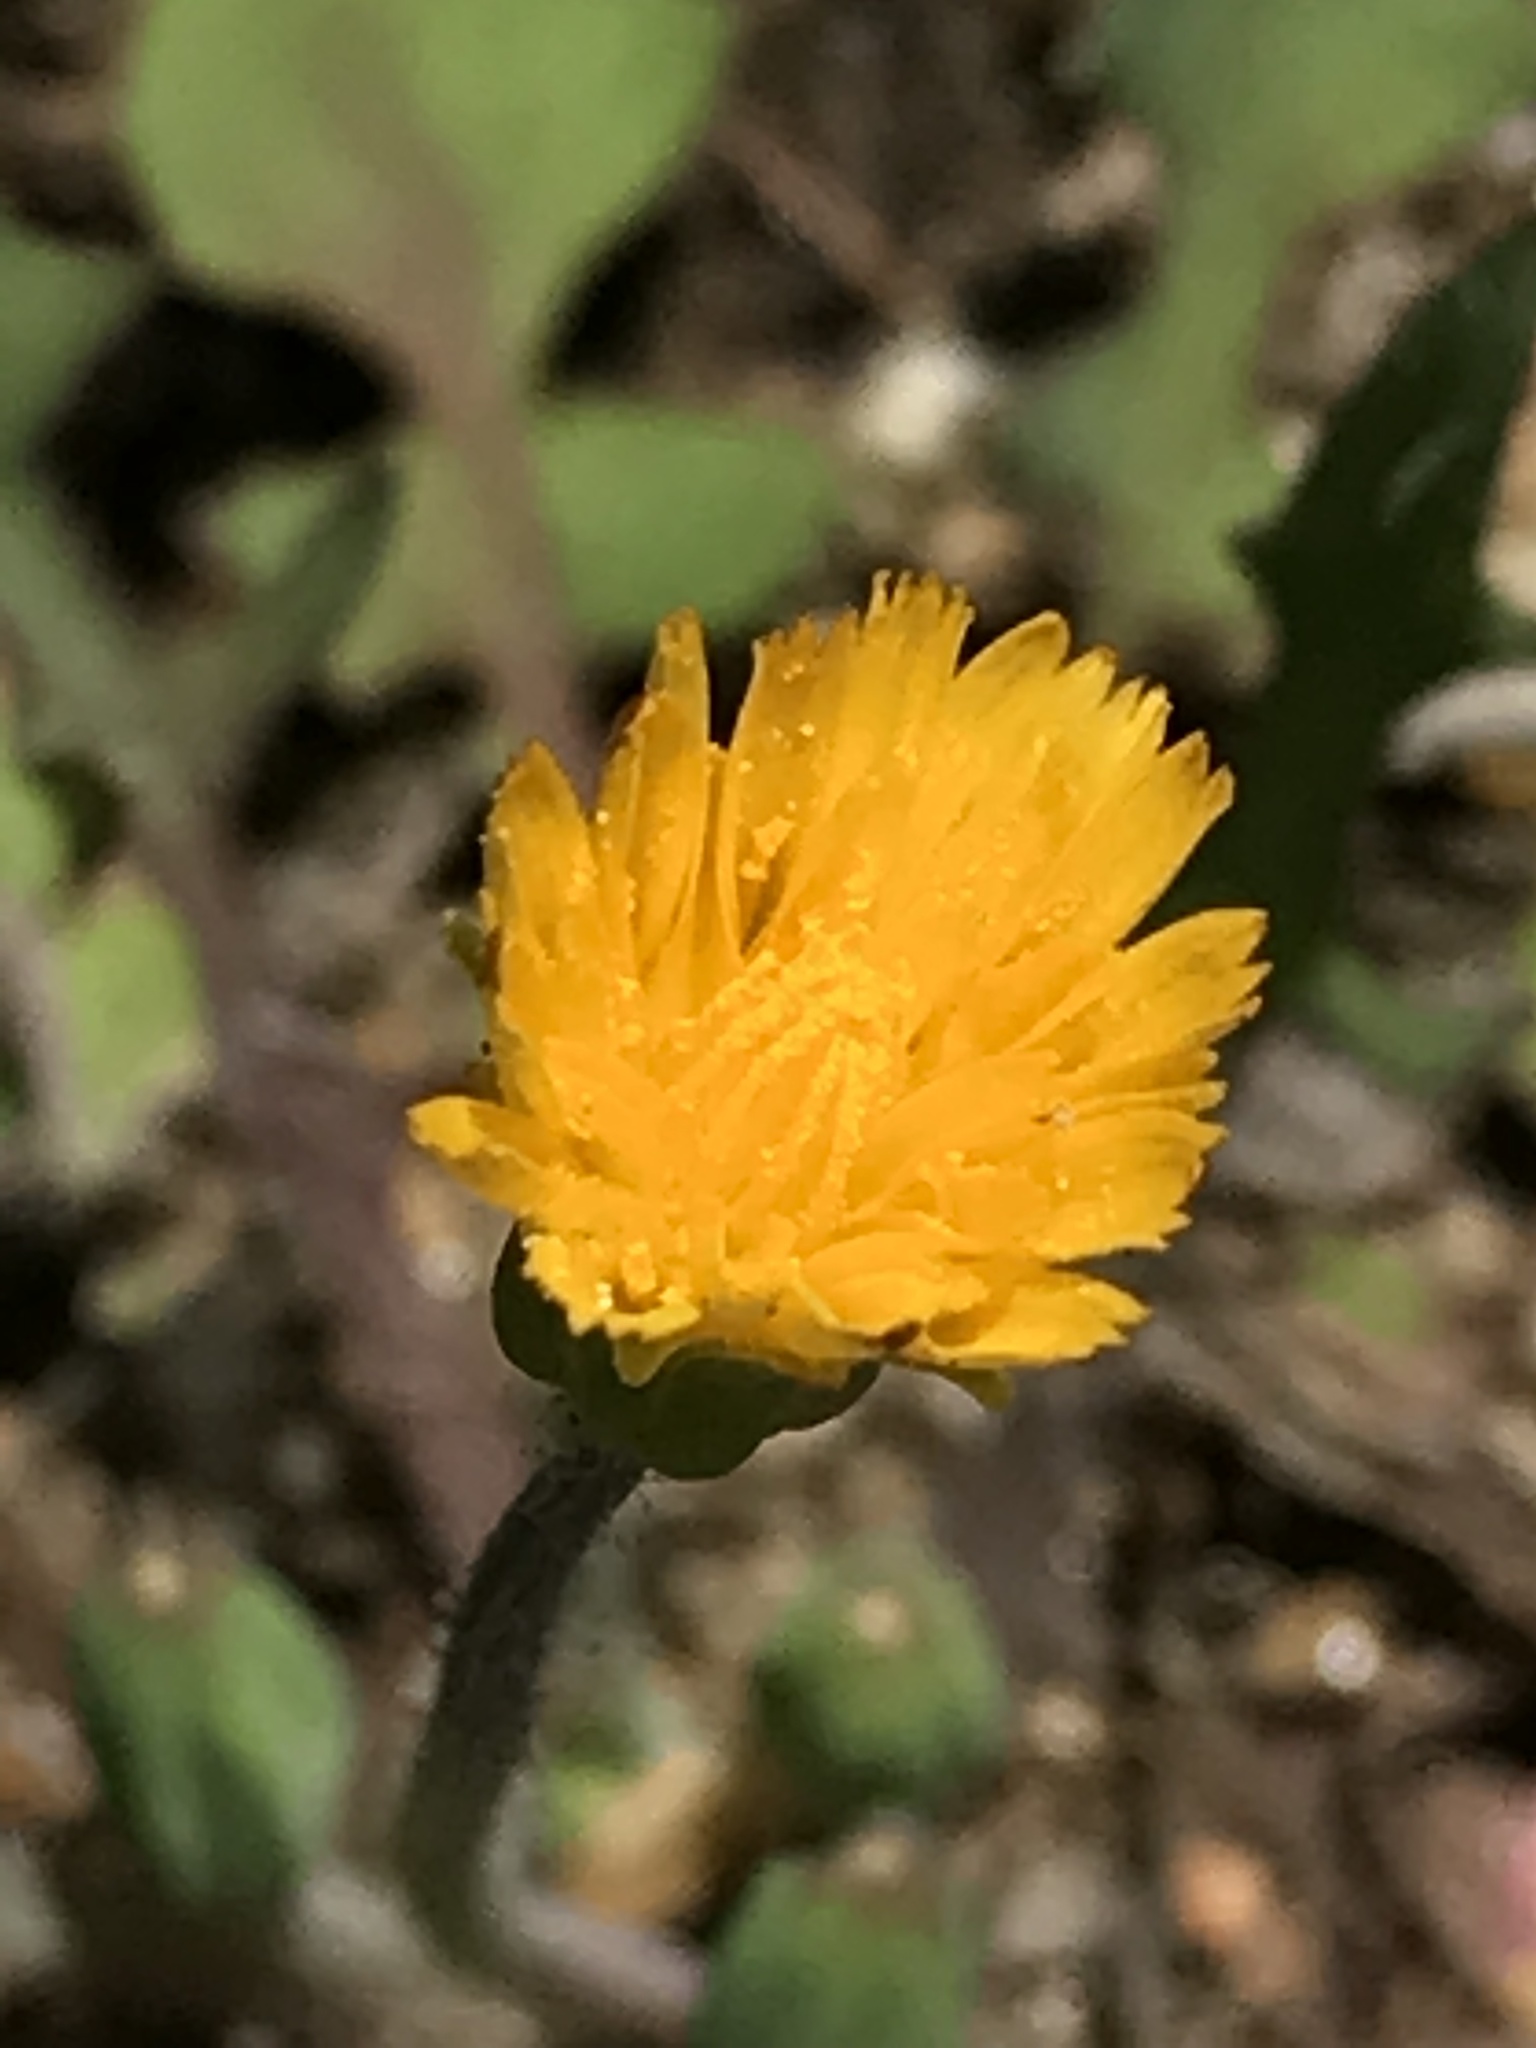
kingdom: Plantae
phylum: Tracheophyta
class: Magnoliopsida
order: Asterales
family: Asteraceae
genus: Krigia
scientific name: Krigia virginica
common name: Virginia dwarf-dandelion
